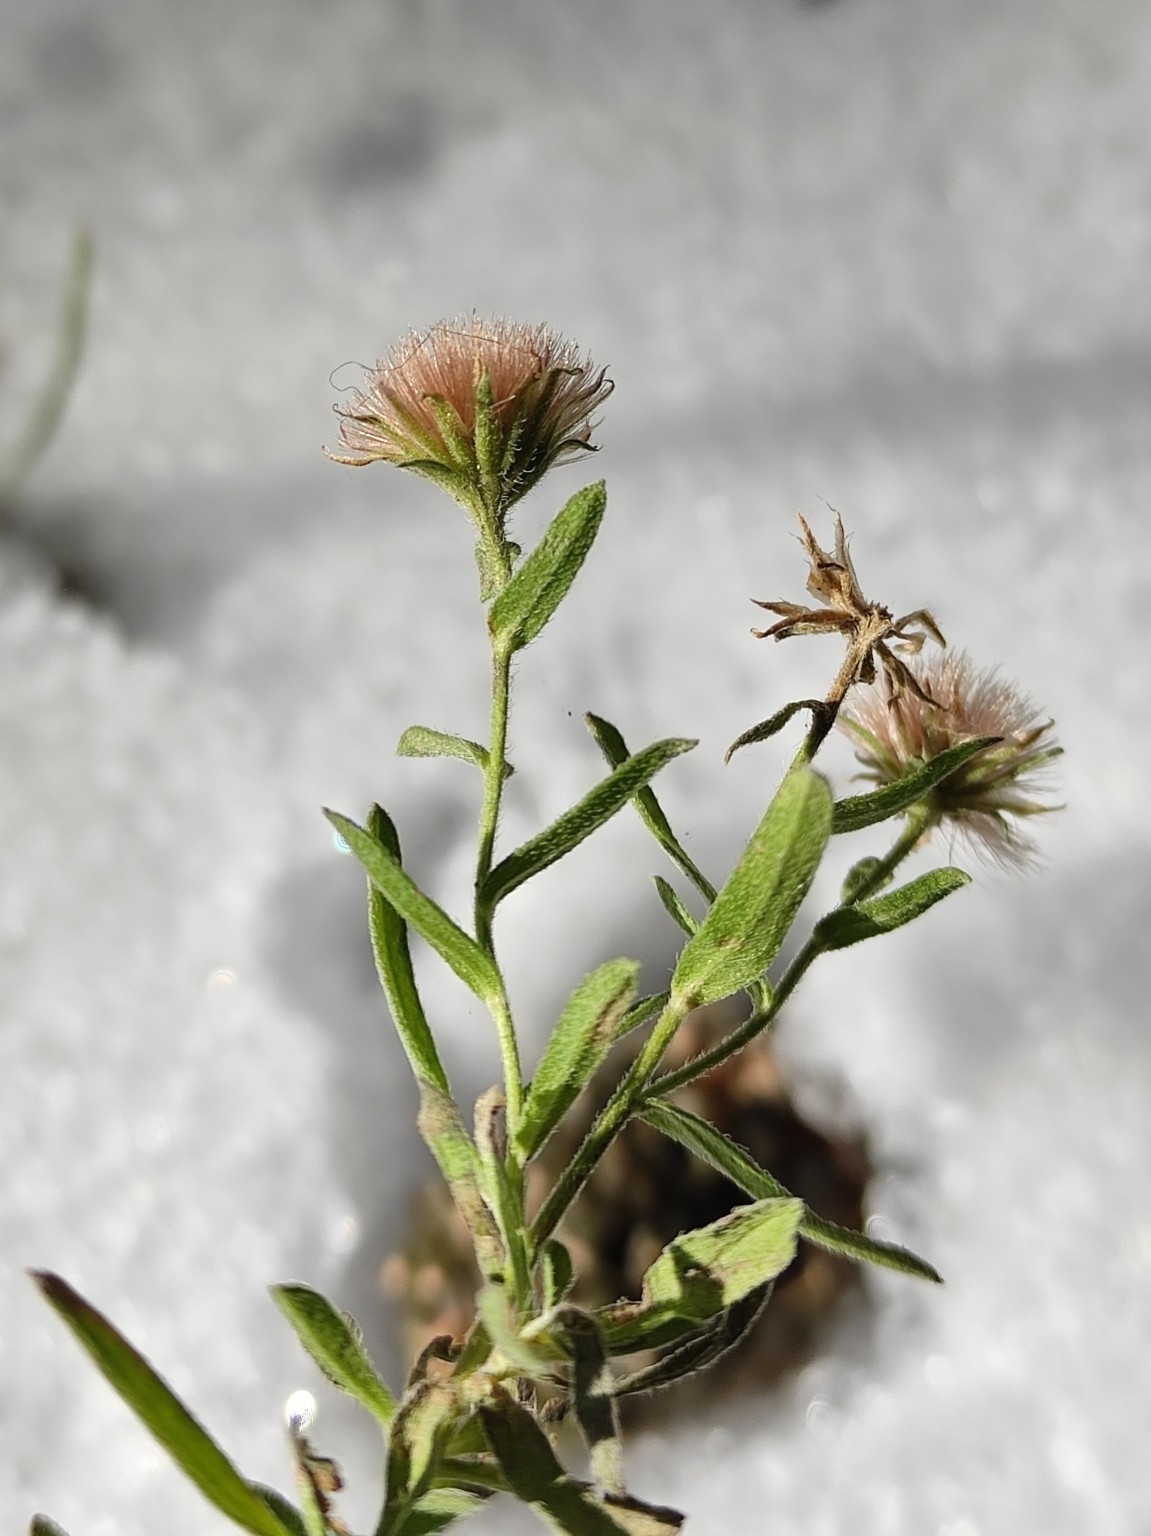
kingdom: Plantae
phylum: Tracheophyta
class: Magnoliopsida
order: Asterales
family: Asteraceae
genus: Heteropappus
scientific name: Heteropappus altaicus
